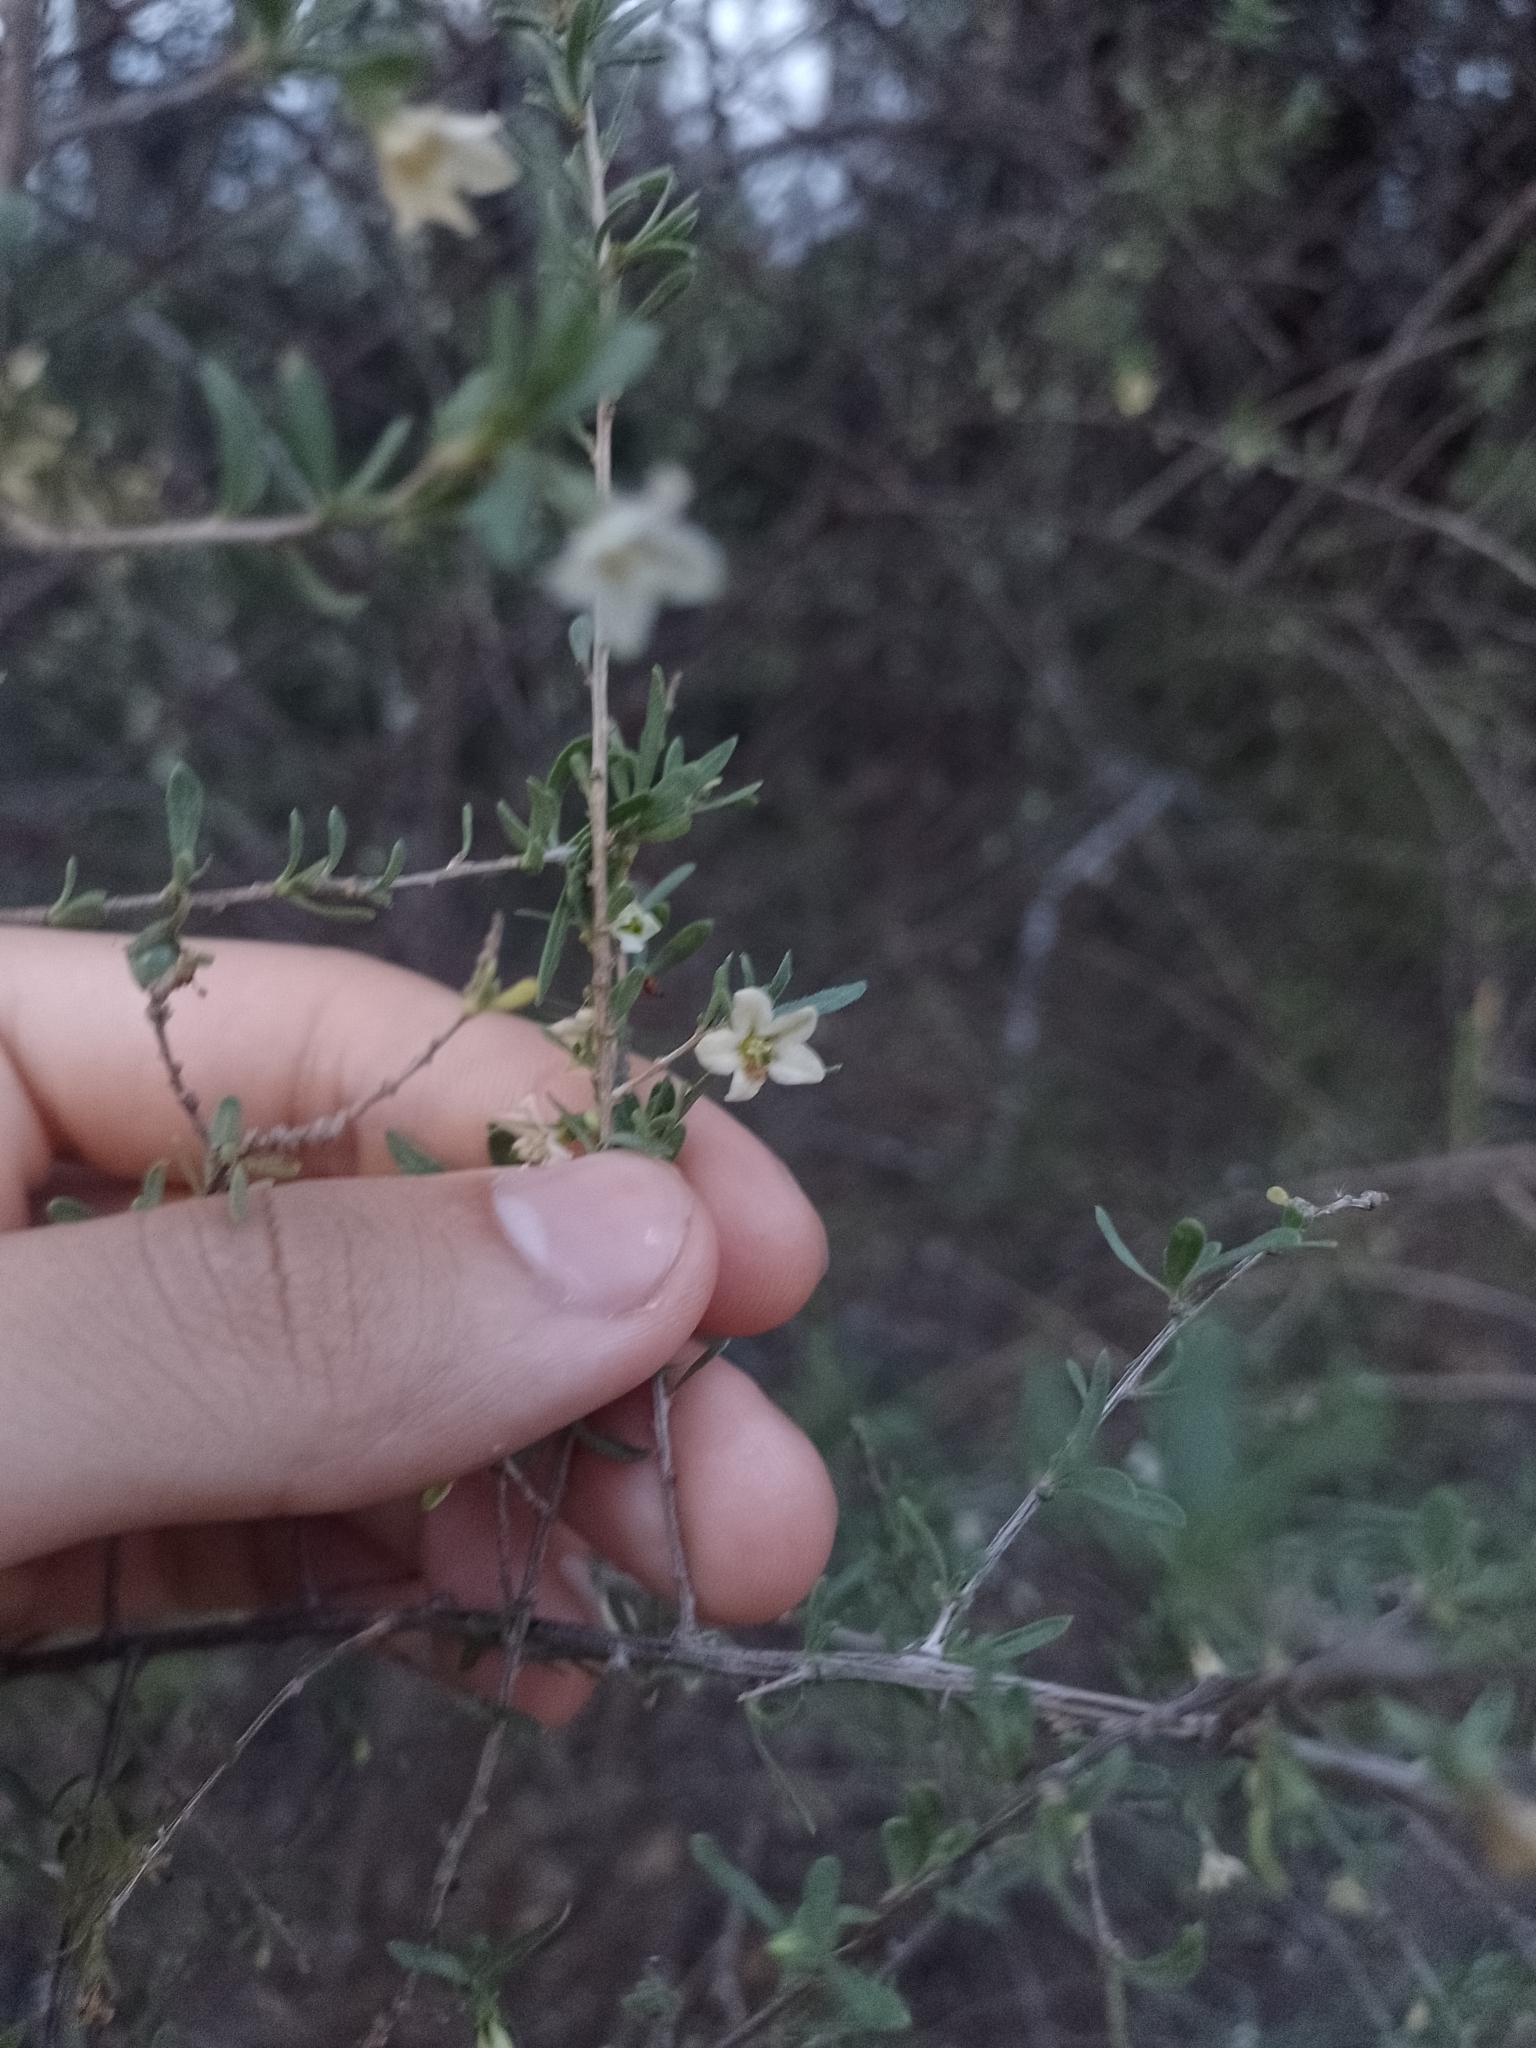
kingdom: Plantae
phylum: Tracheophyta
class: Magnoliopsida
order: Solanales
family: Solanaceae
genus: Lycium
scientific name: Lycium ciliatum
